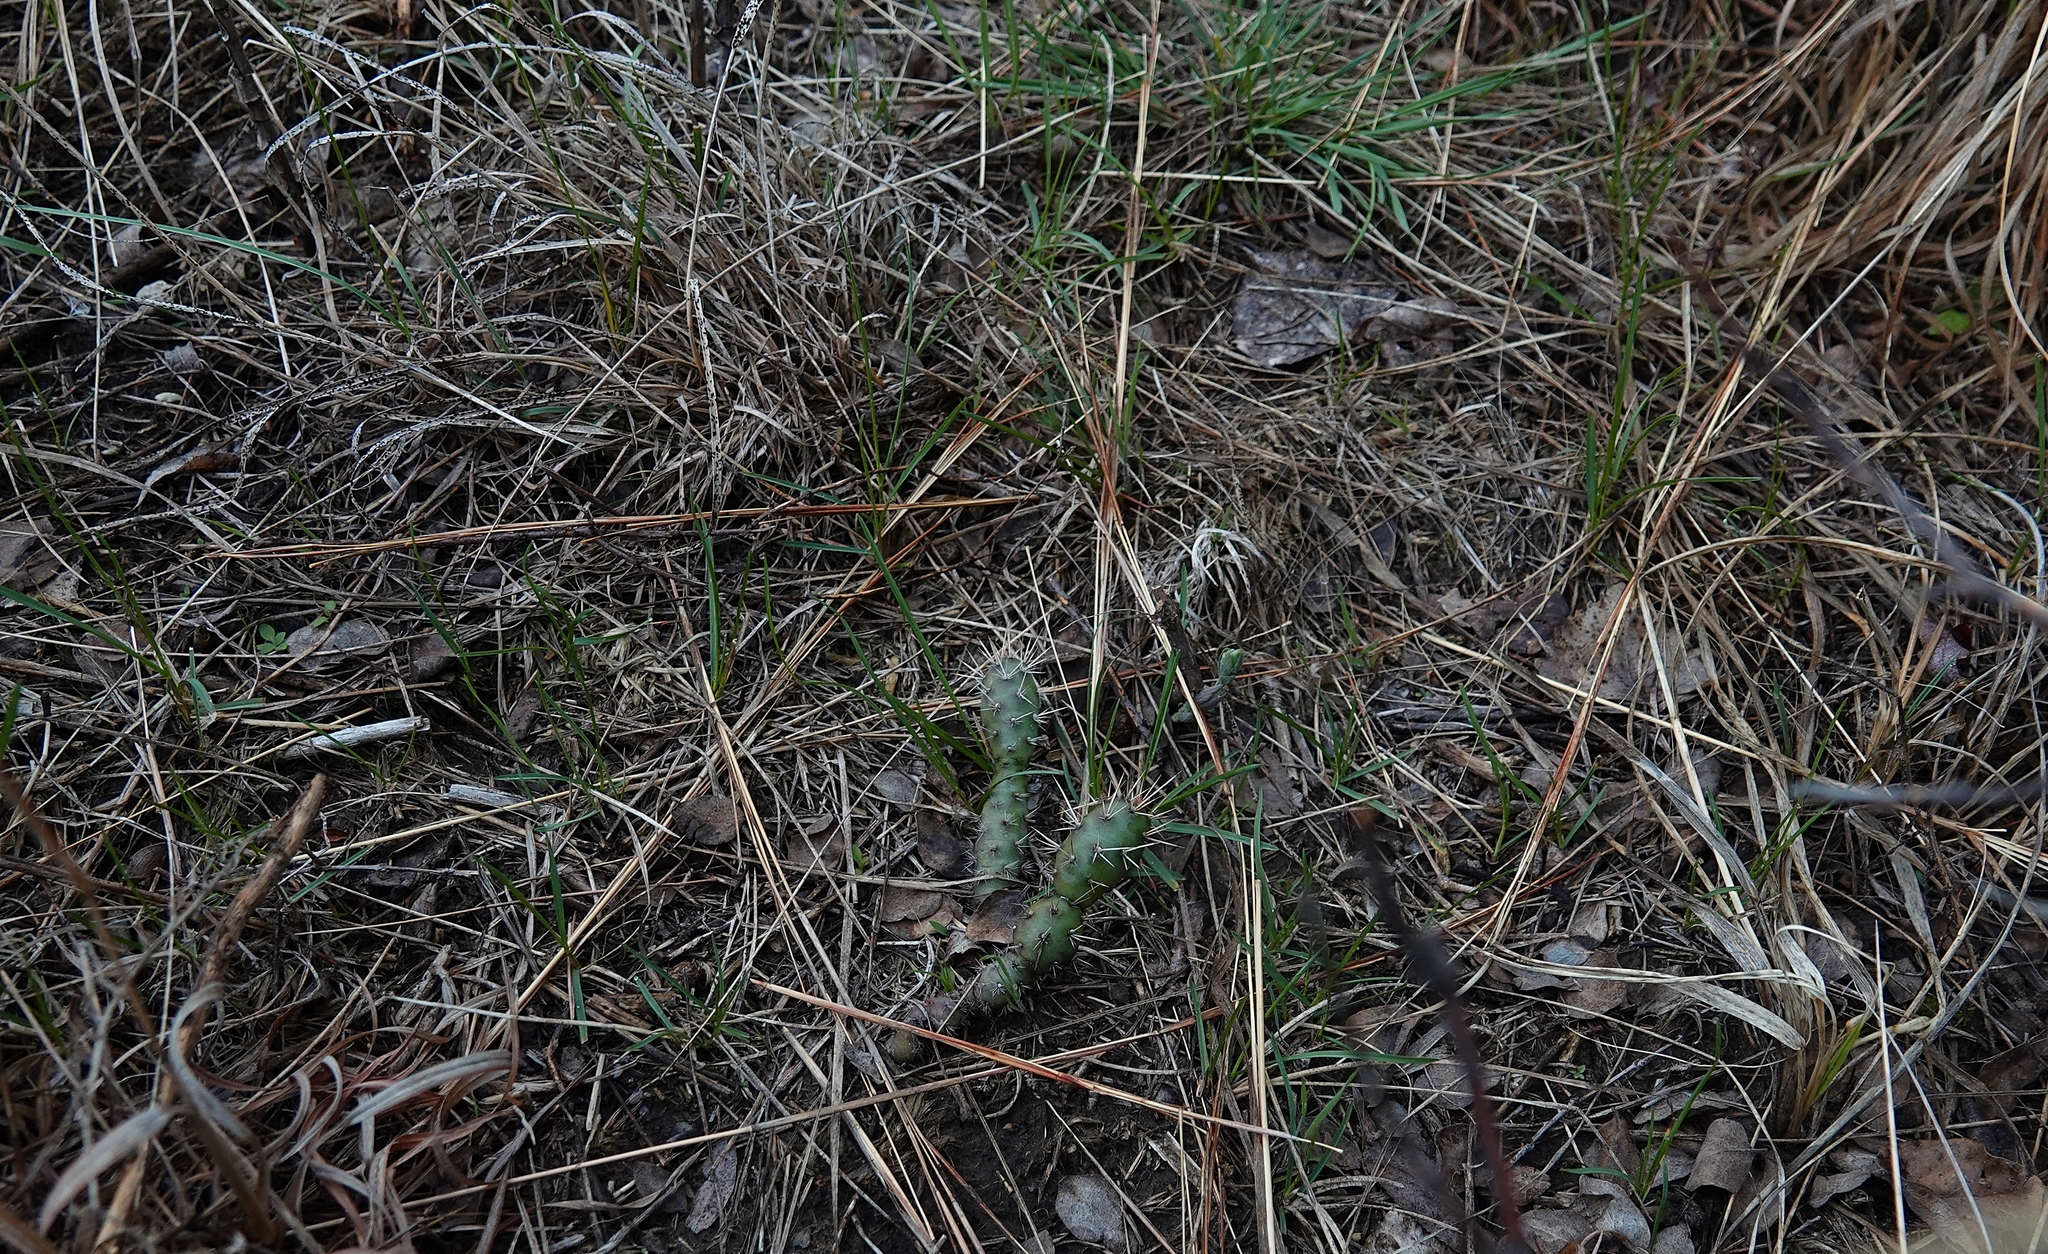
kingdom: Plantae
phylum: Tracheophyta
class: Magnoliopsida
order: Caryophyllales
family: Cactaceae
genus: Opuntia
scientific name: Opuntia fragilis
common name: Brittle cactus
